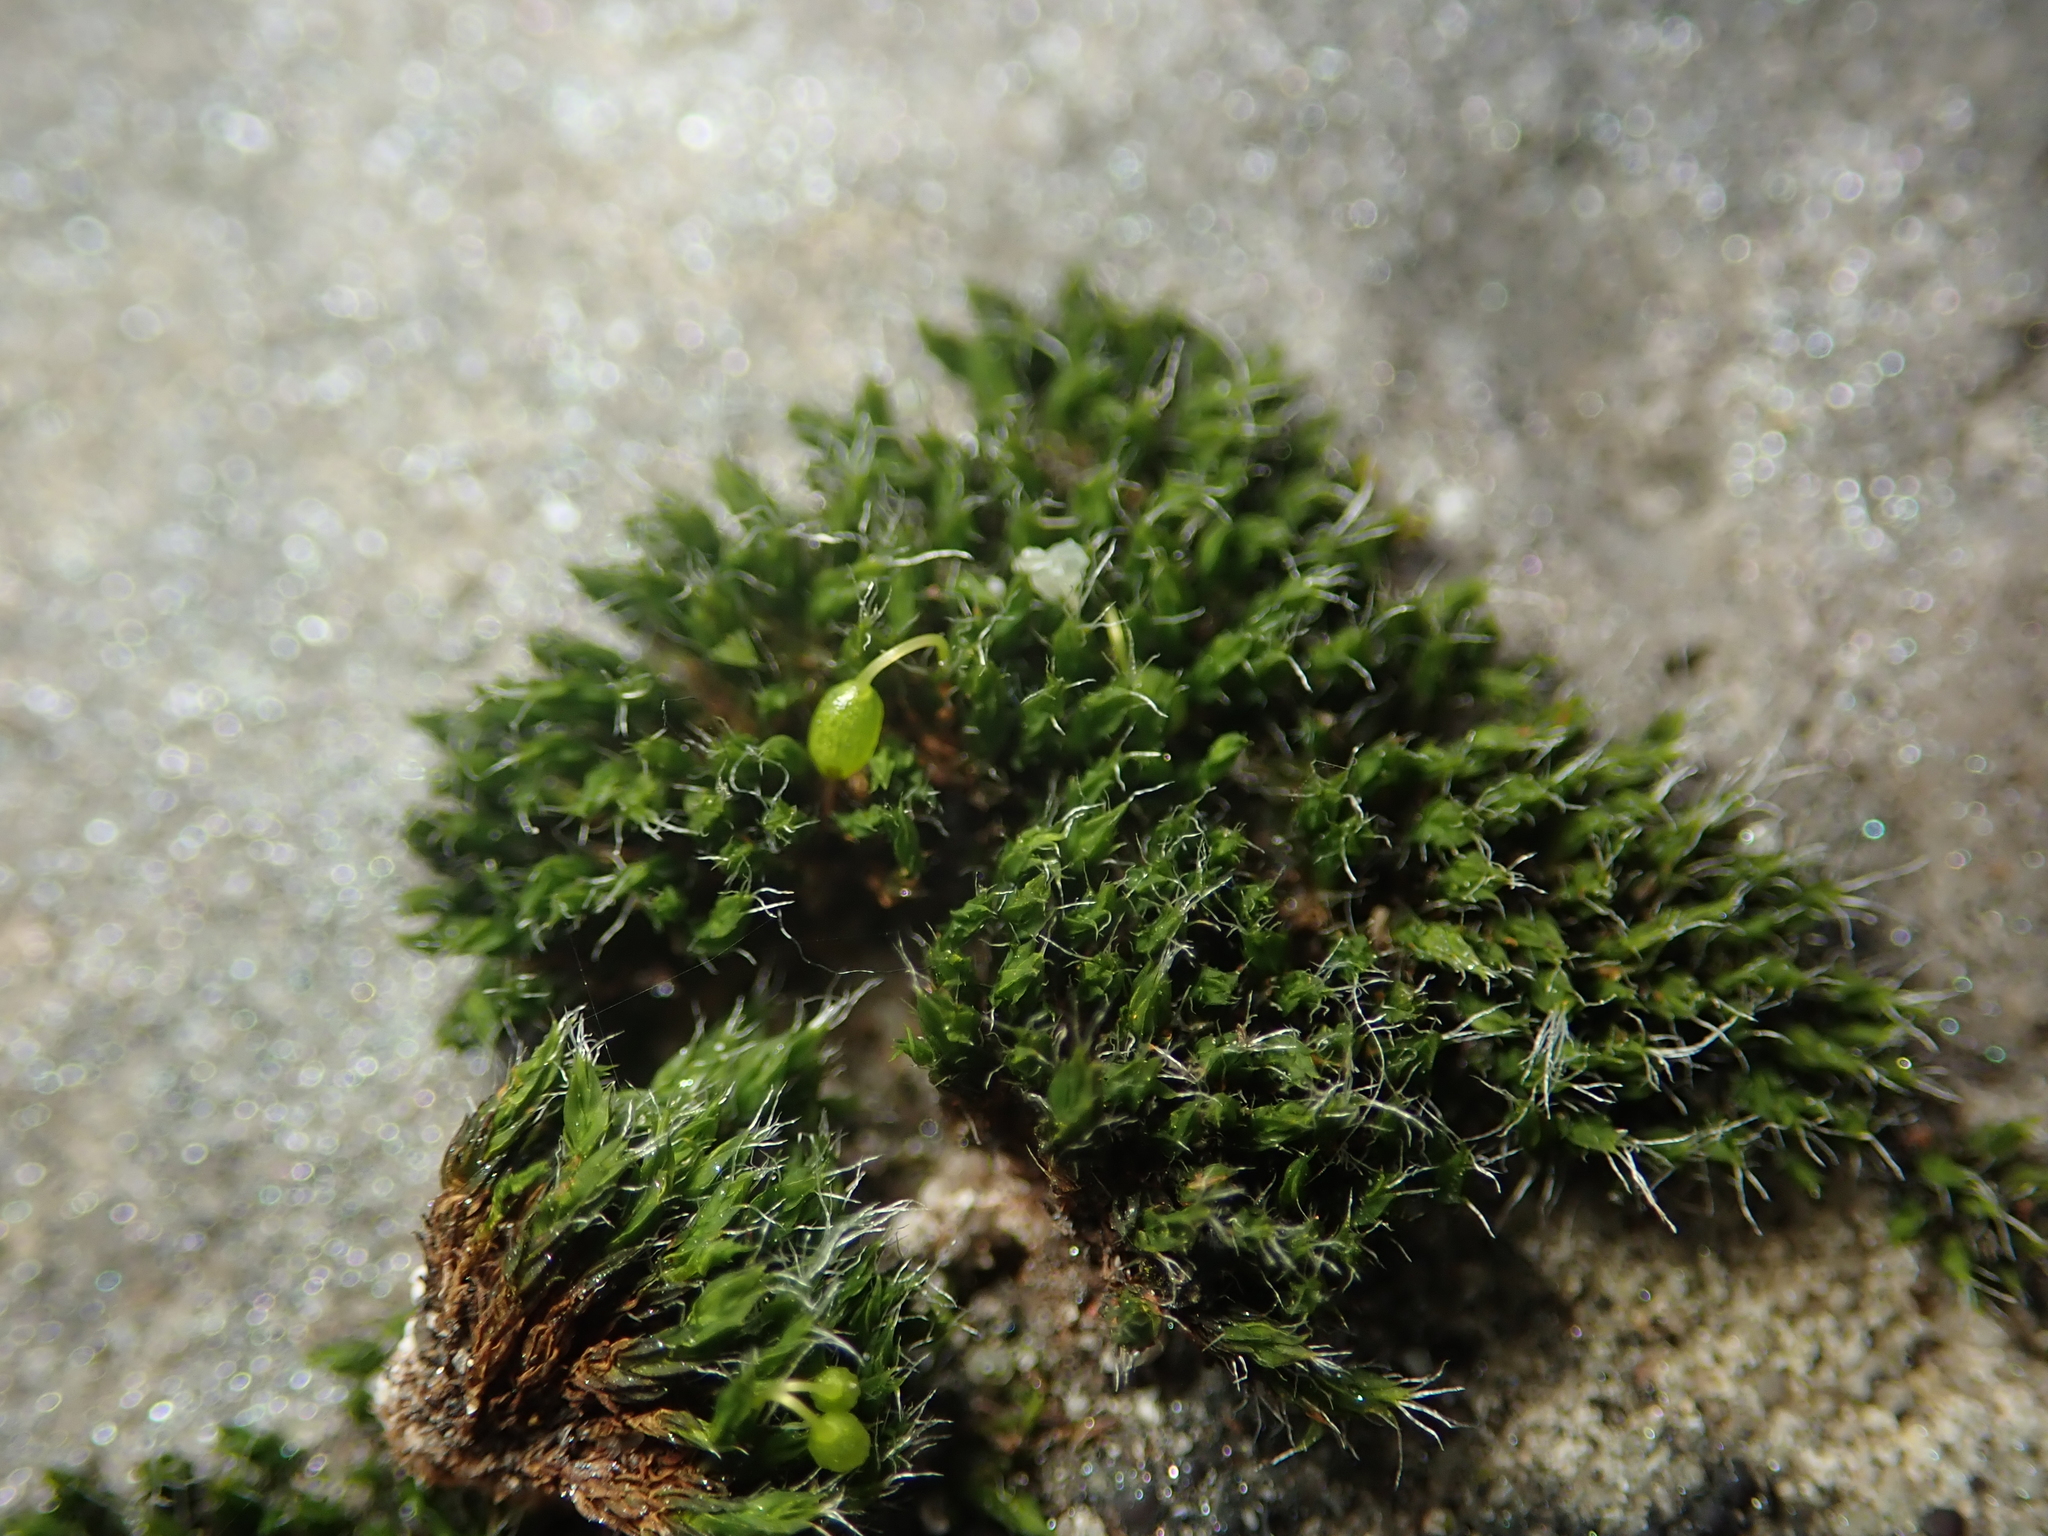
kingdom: Plantae
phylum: Bryophyta
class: Bryopsida
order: Grimmiales
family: Grimmiaceae
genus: Grimmia
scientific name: Grimmia pulvinata
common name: Grey-cushioned grimmia
